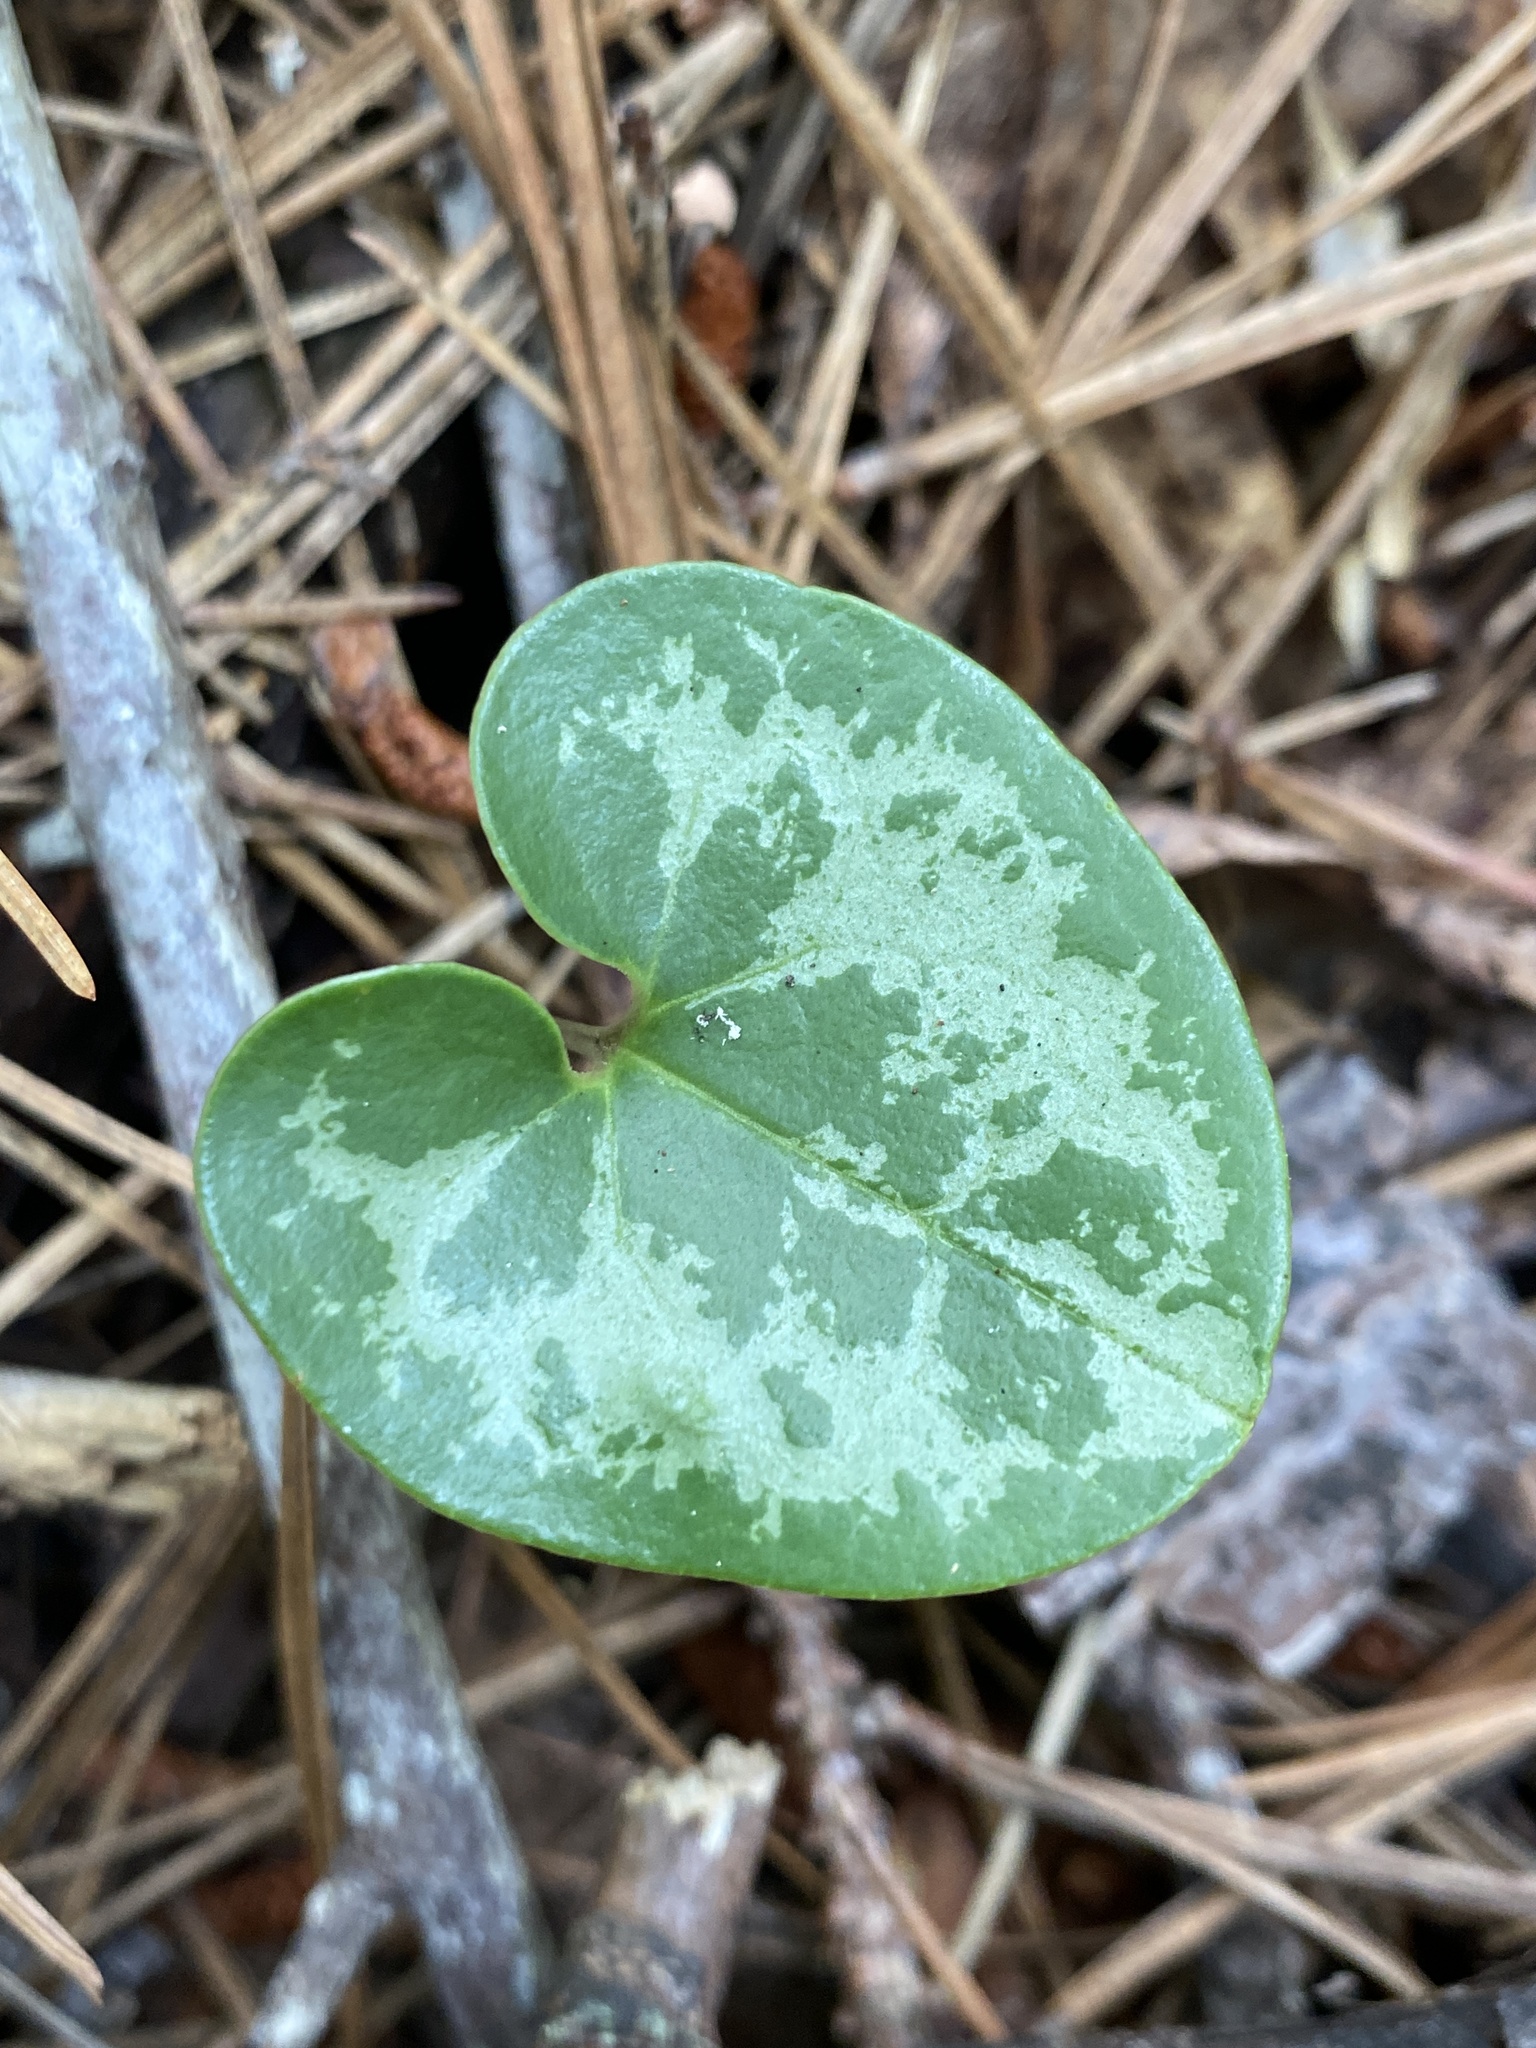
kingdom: Plantae
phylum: Tracheophyta
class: Magnoliopsida
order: Piperales
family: Aristolochiaceae
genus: Hexastylis
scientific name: Hexastylis sorriei
